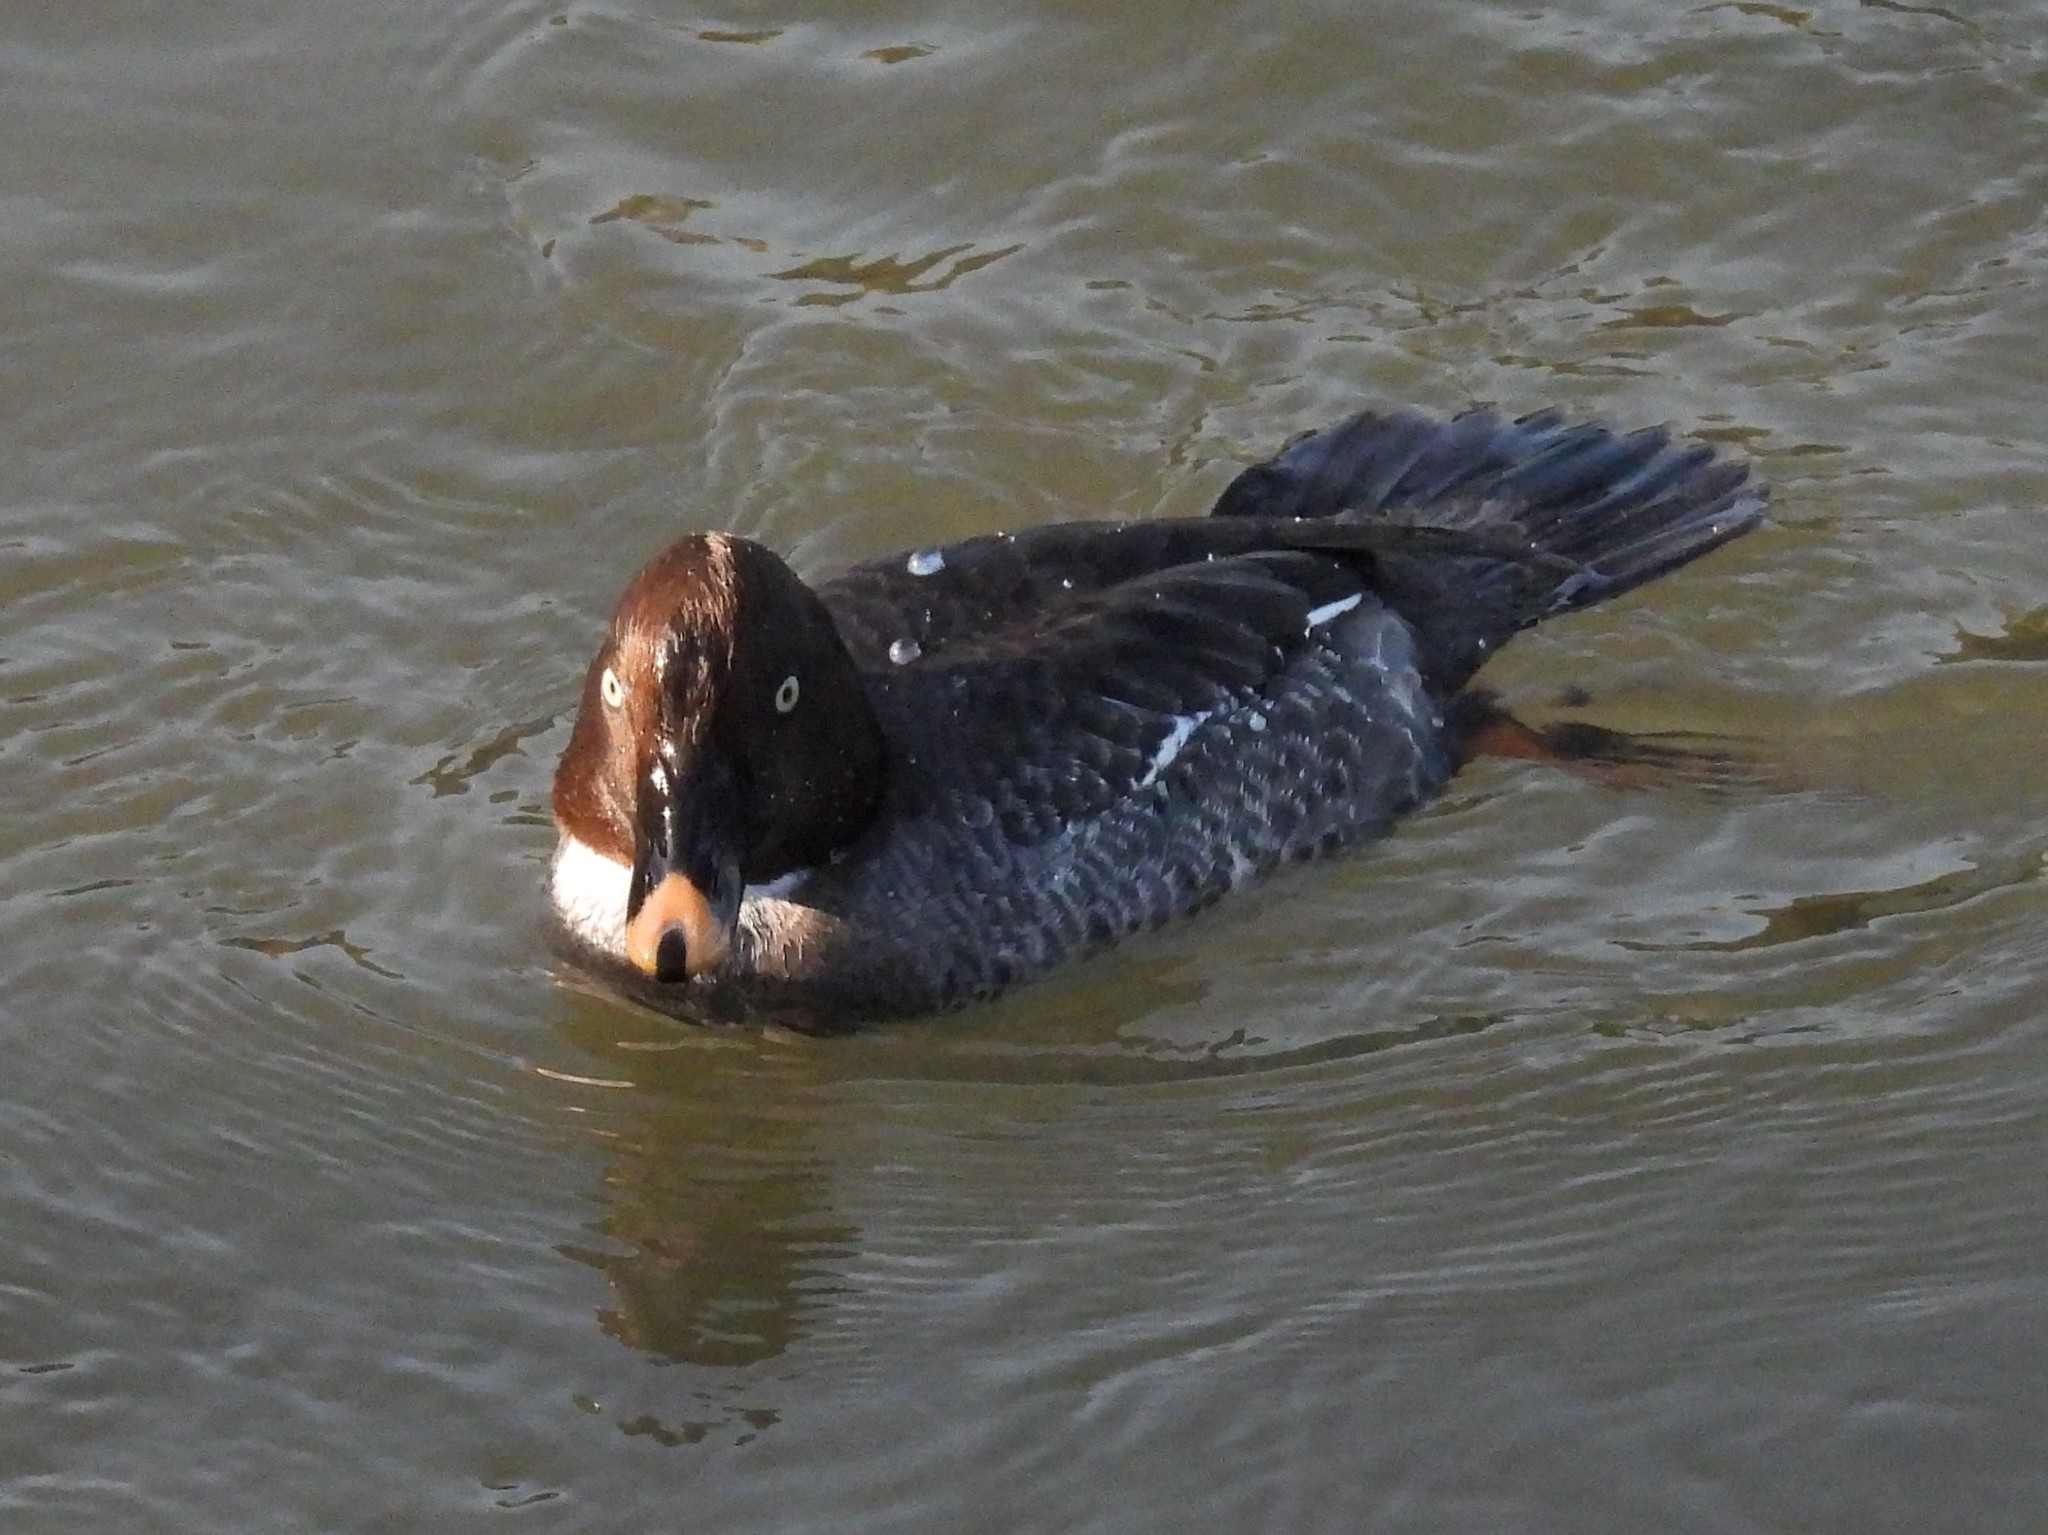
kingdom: Animalia
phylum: Chordata
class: Aves
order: Anseriformes
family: Anatidae
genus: Bucephala
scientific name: Bucephala clangula
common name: Common goldeneye
